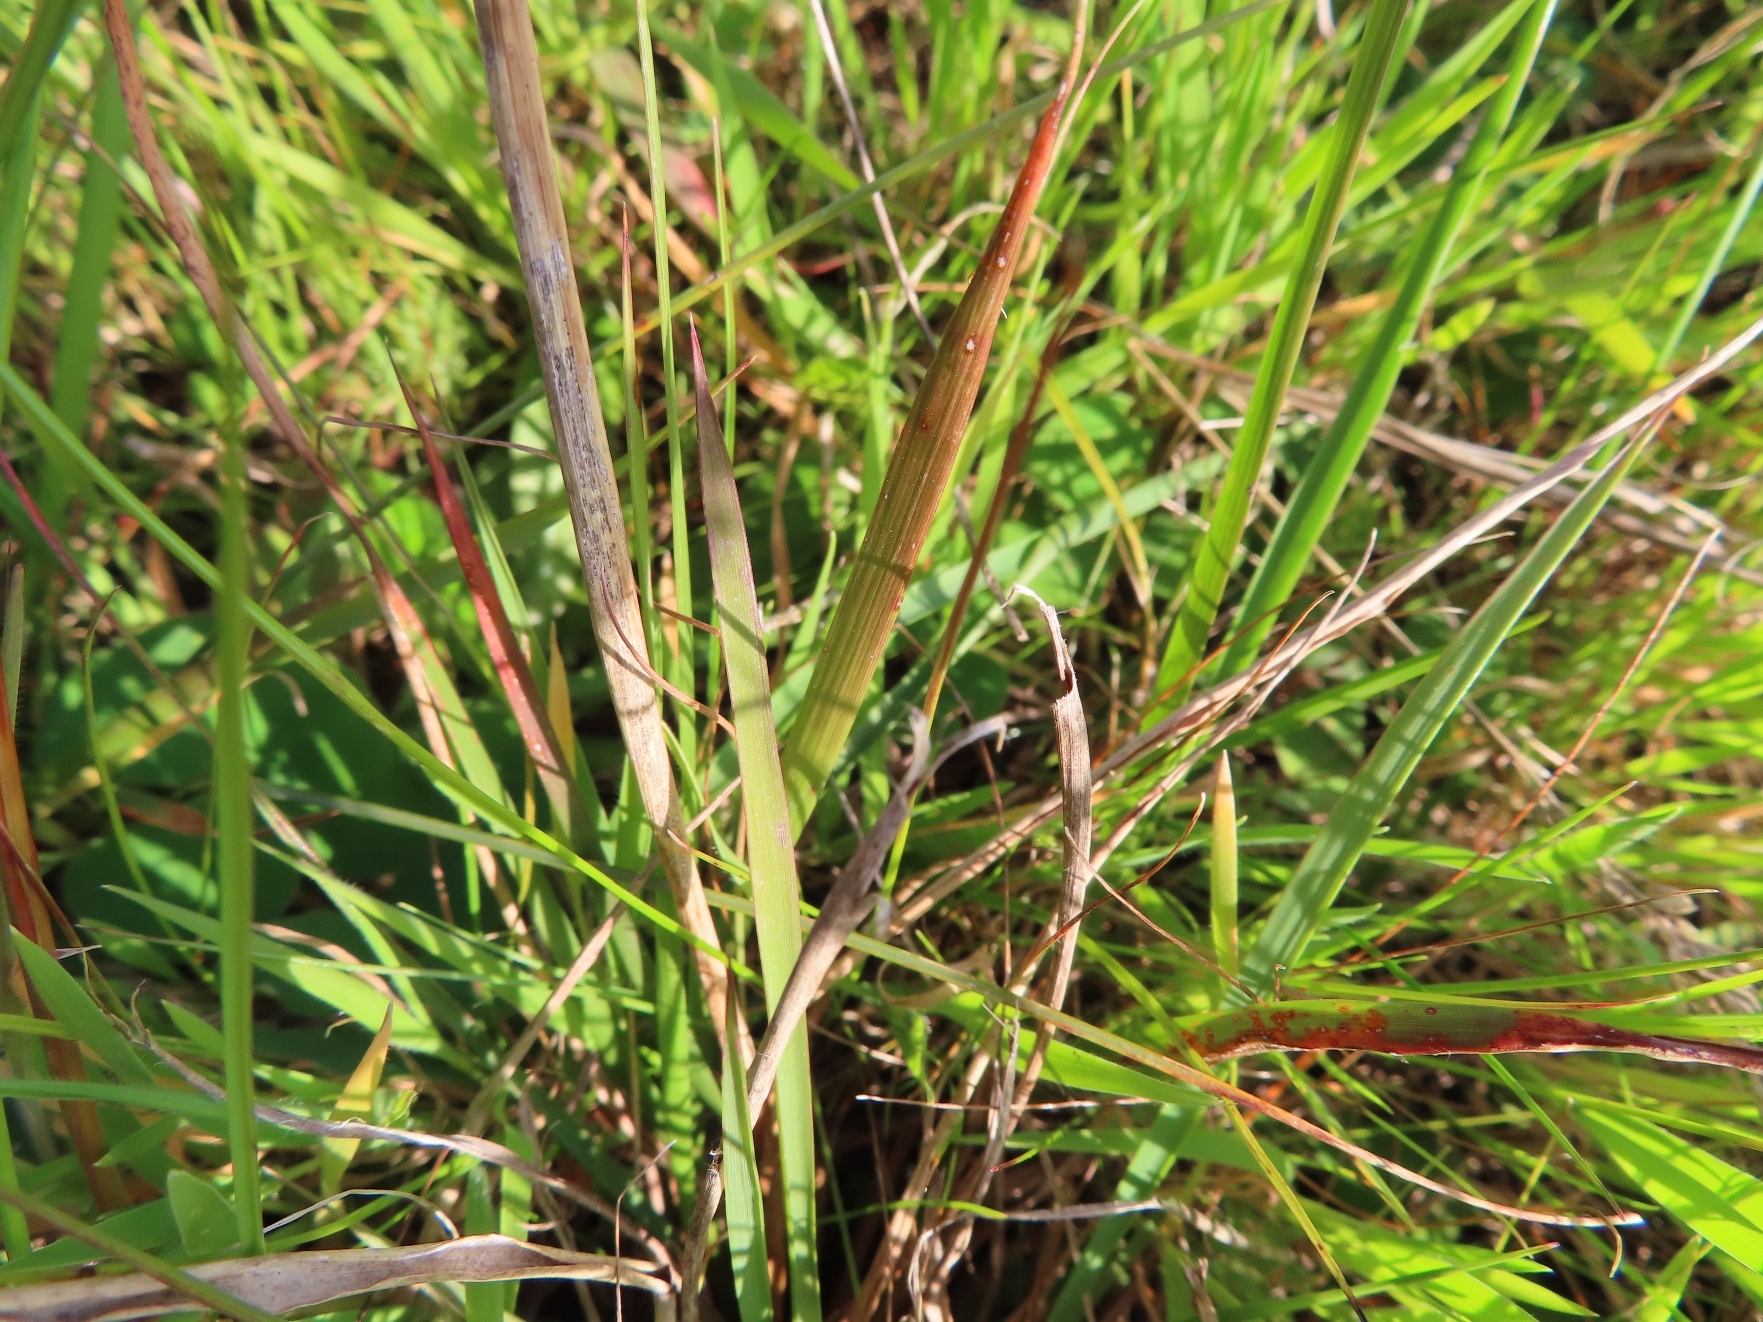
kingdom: Plantae
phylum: Tracheophyta
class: Liliopsida
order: Poales
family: Poaceae
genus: Eragrostis
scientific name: Eragrostis capensis
